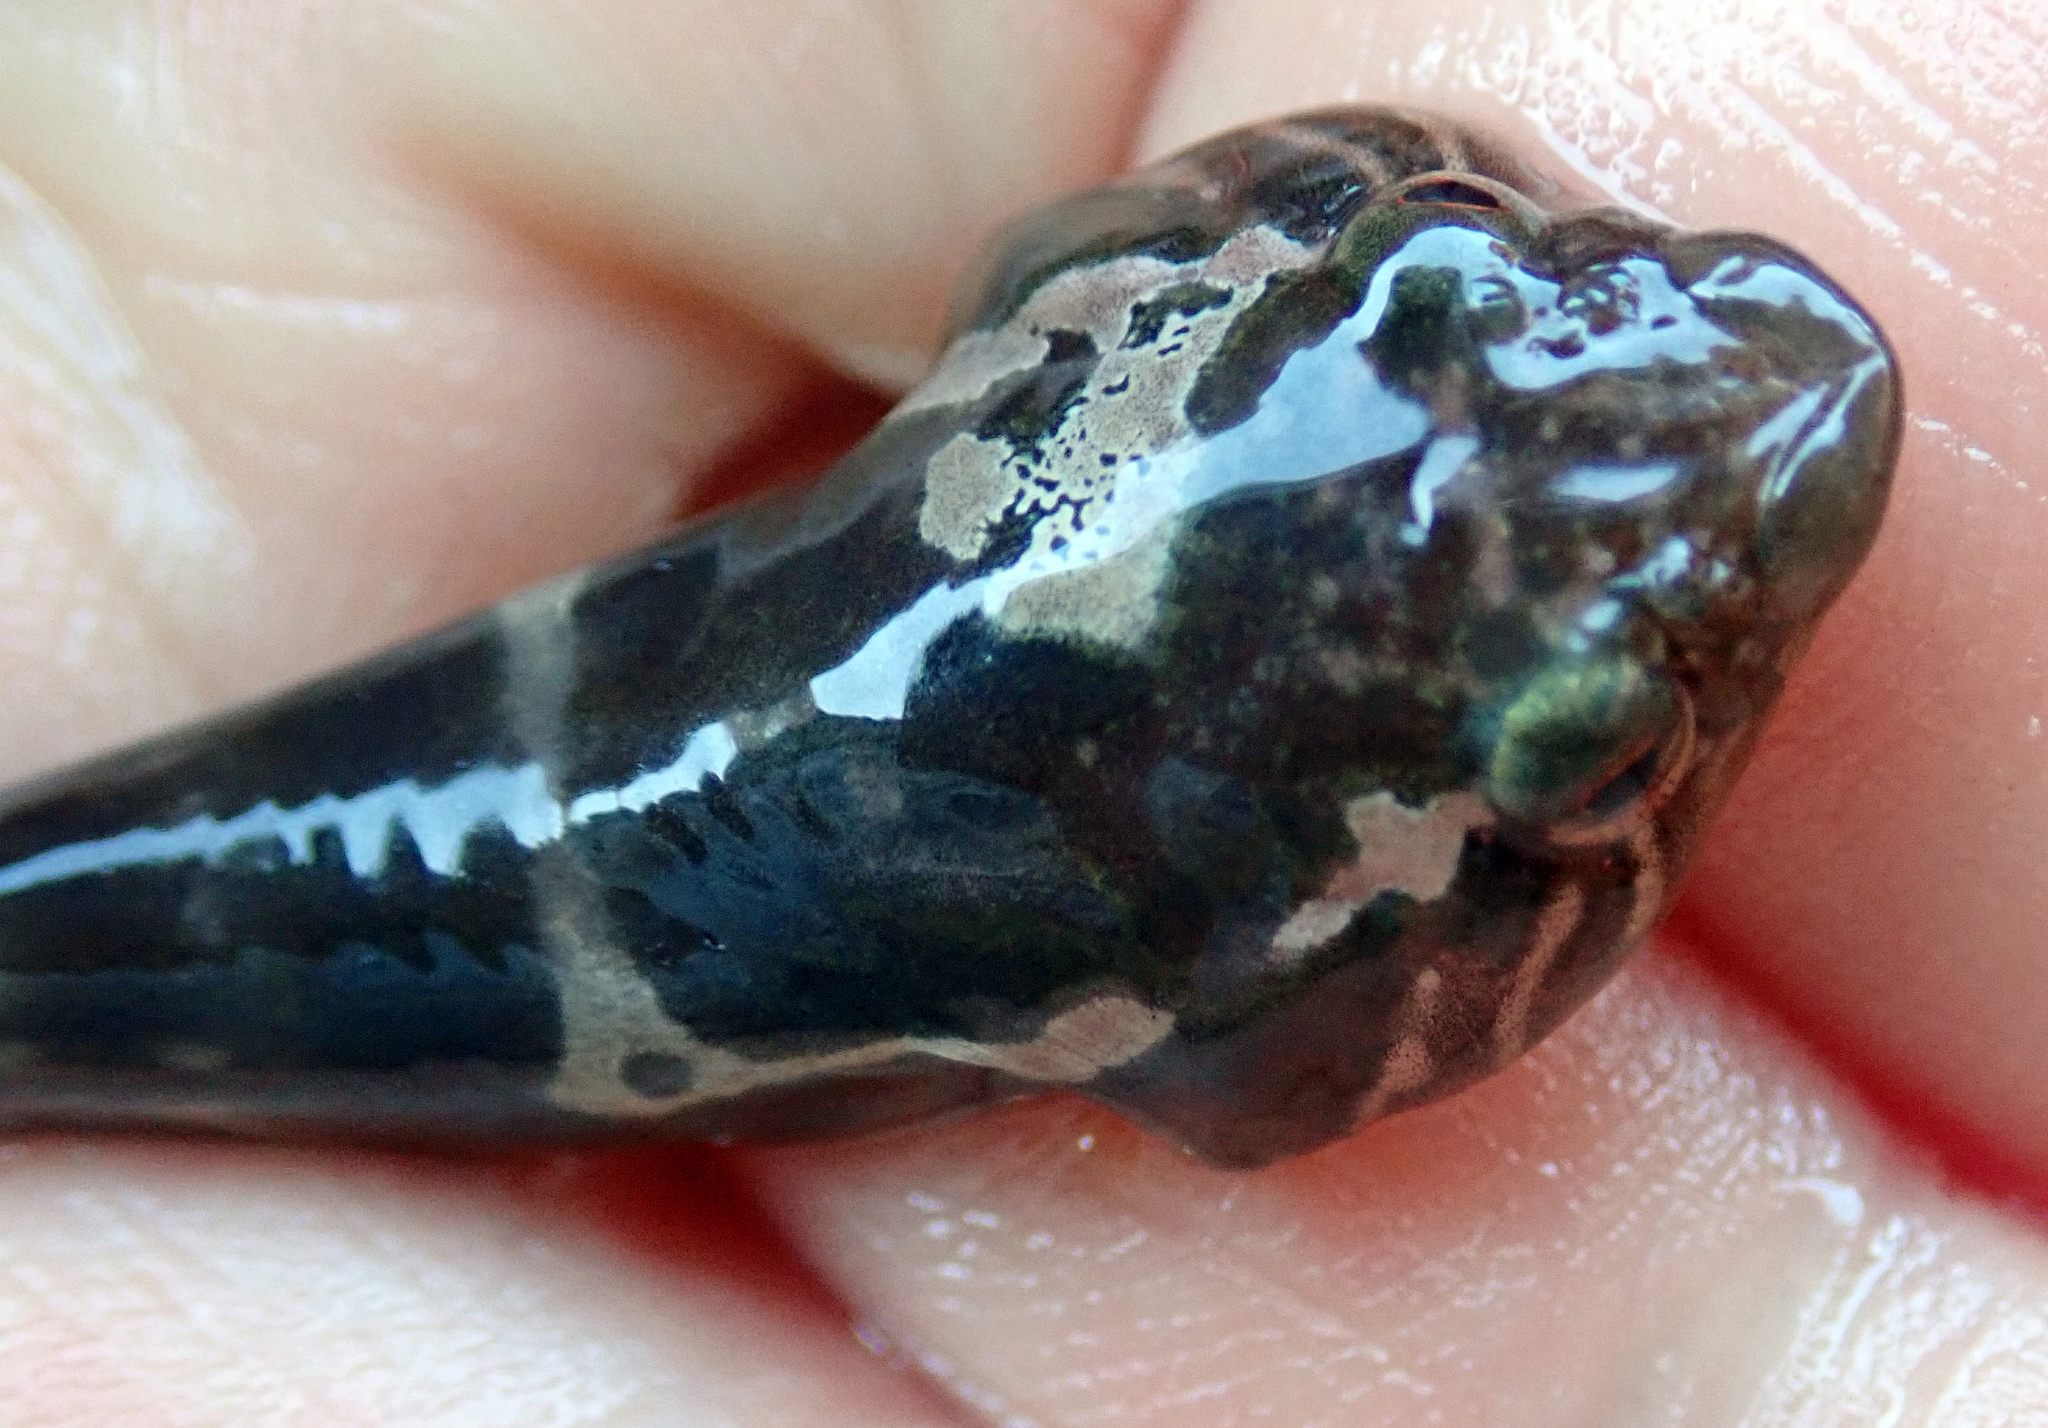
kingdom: Animalia
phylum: Chordata
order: Gobiesociformes
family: Gobiesocidae
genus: Trachelochismus
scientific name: Trachelochismus pinnulatus
